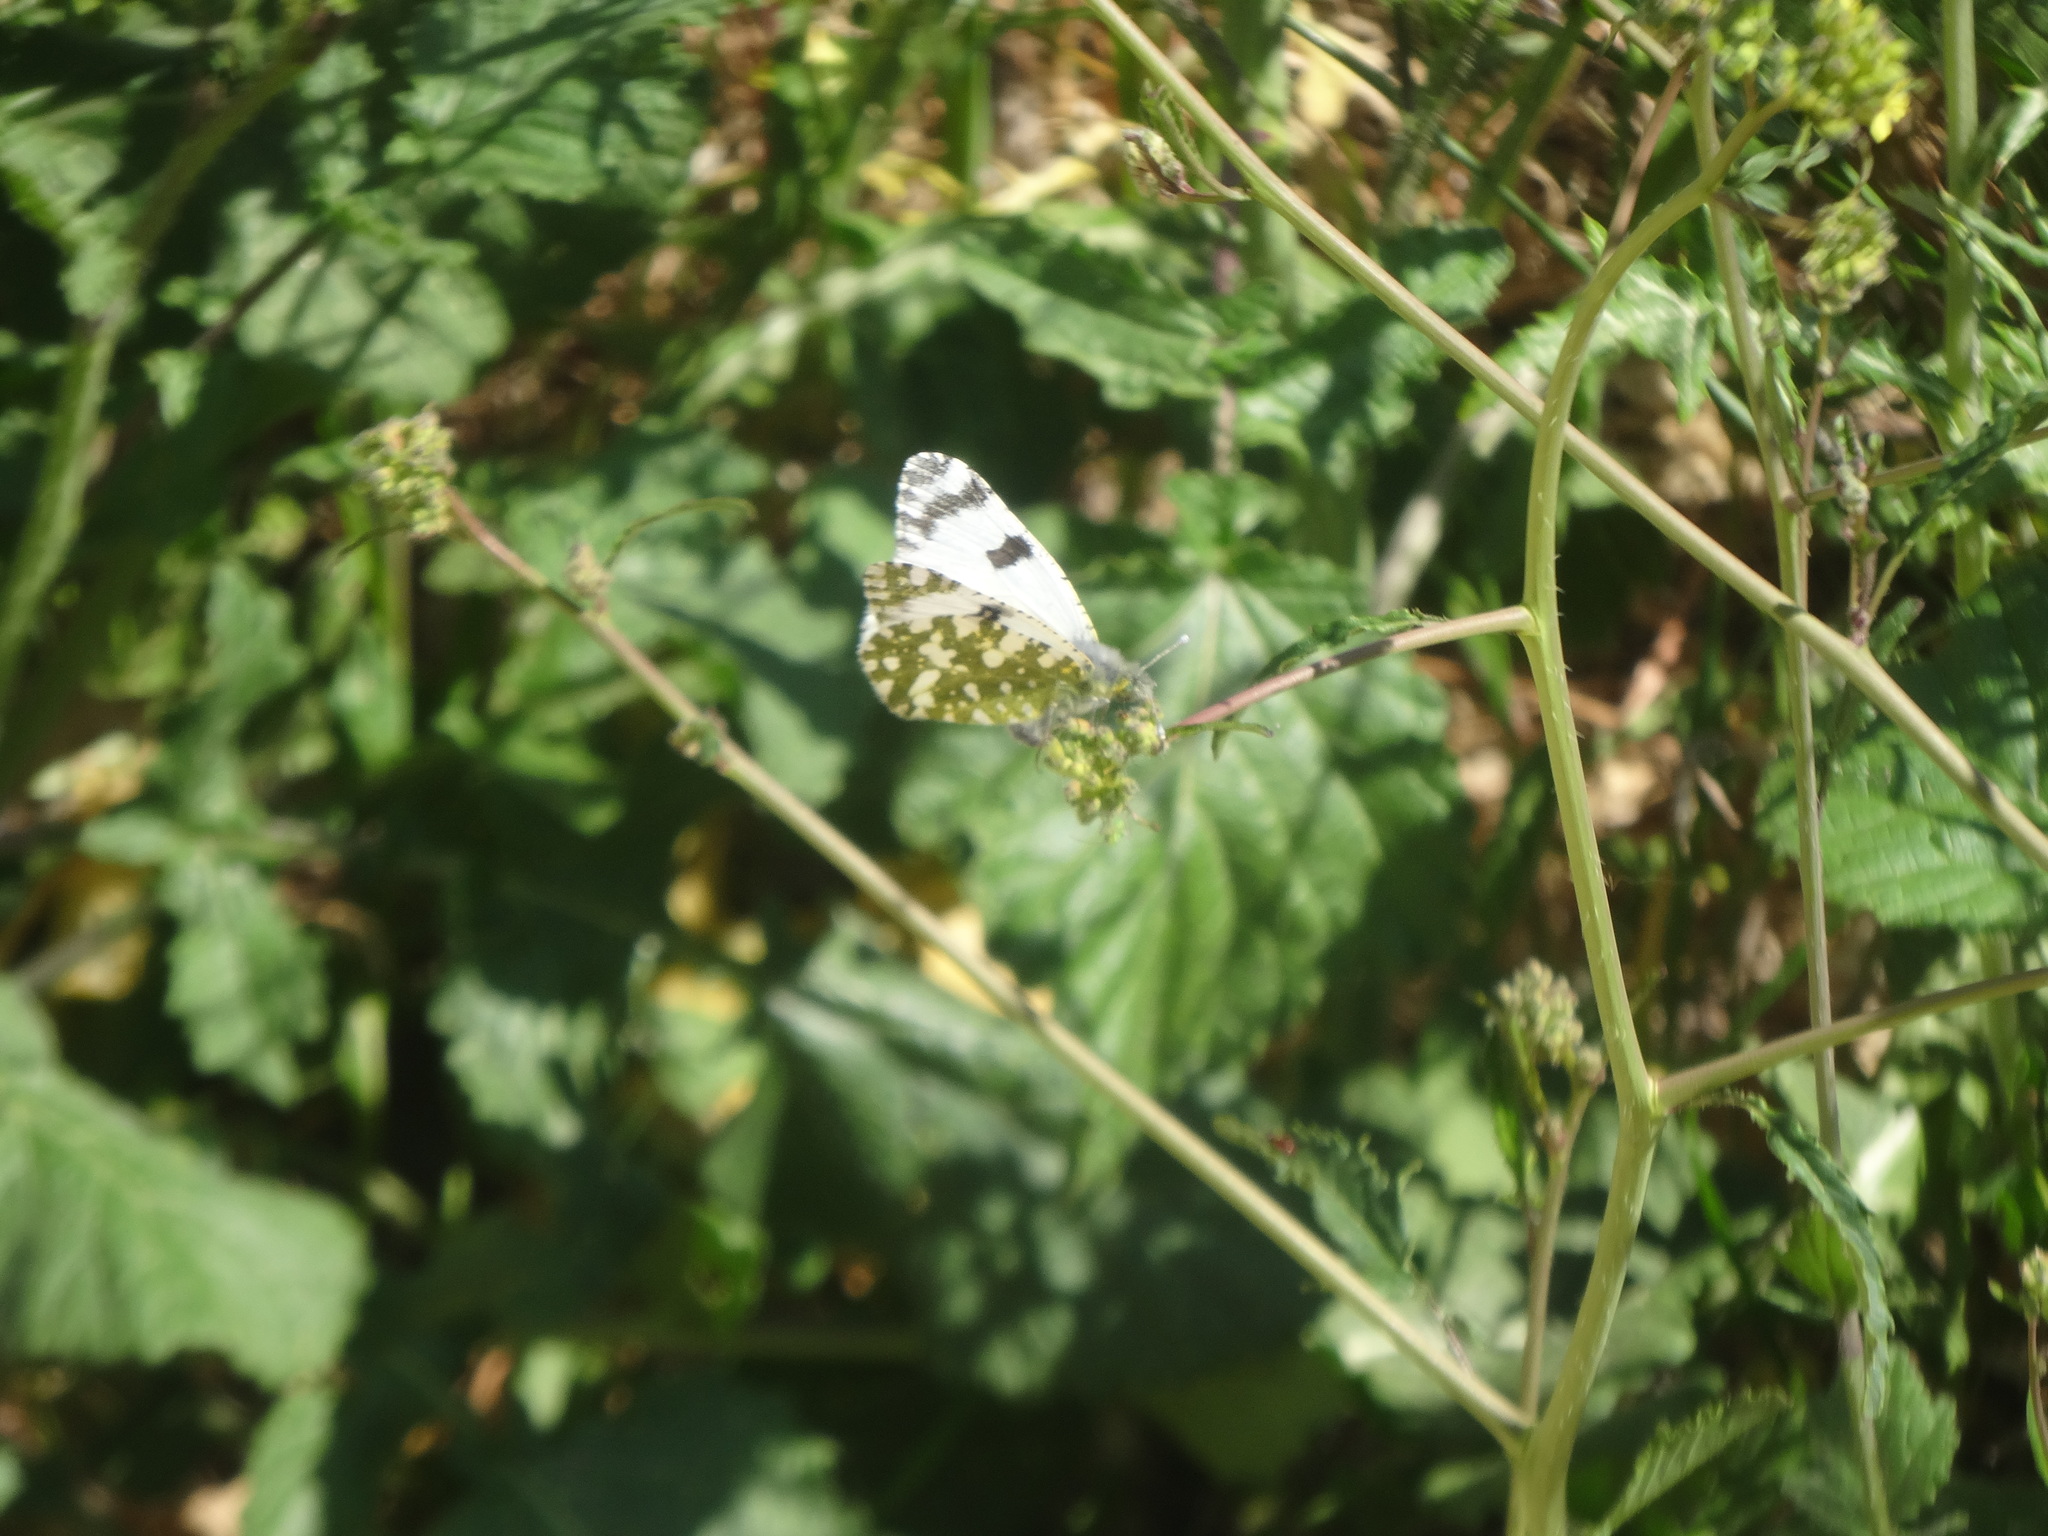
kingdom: Animalia
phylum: Arthropoda
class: Insecta
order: Lepidoptera
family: Pieridae
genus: Euchloe
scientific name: Euchloe crameri
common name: Western dappled white
